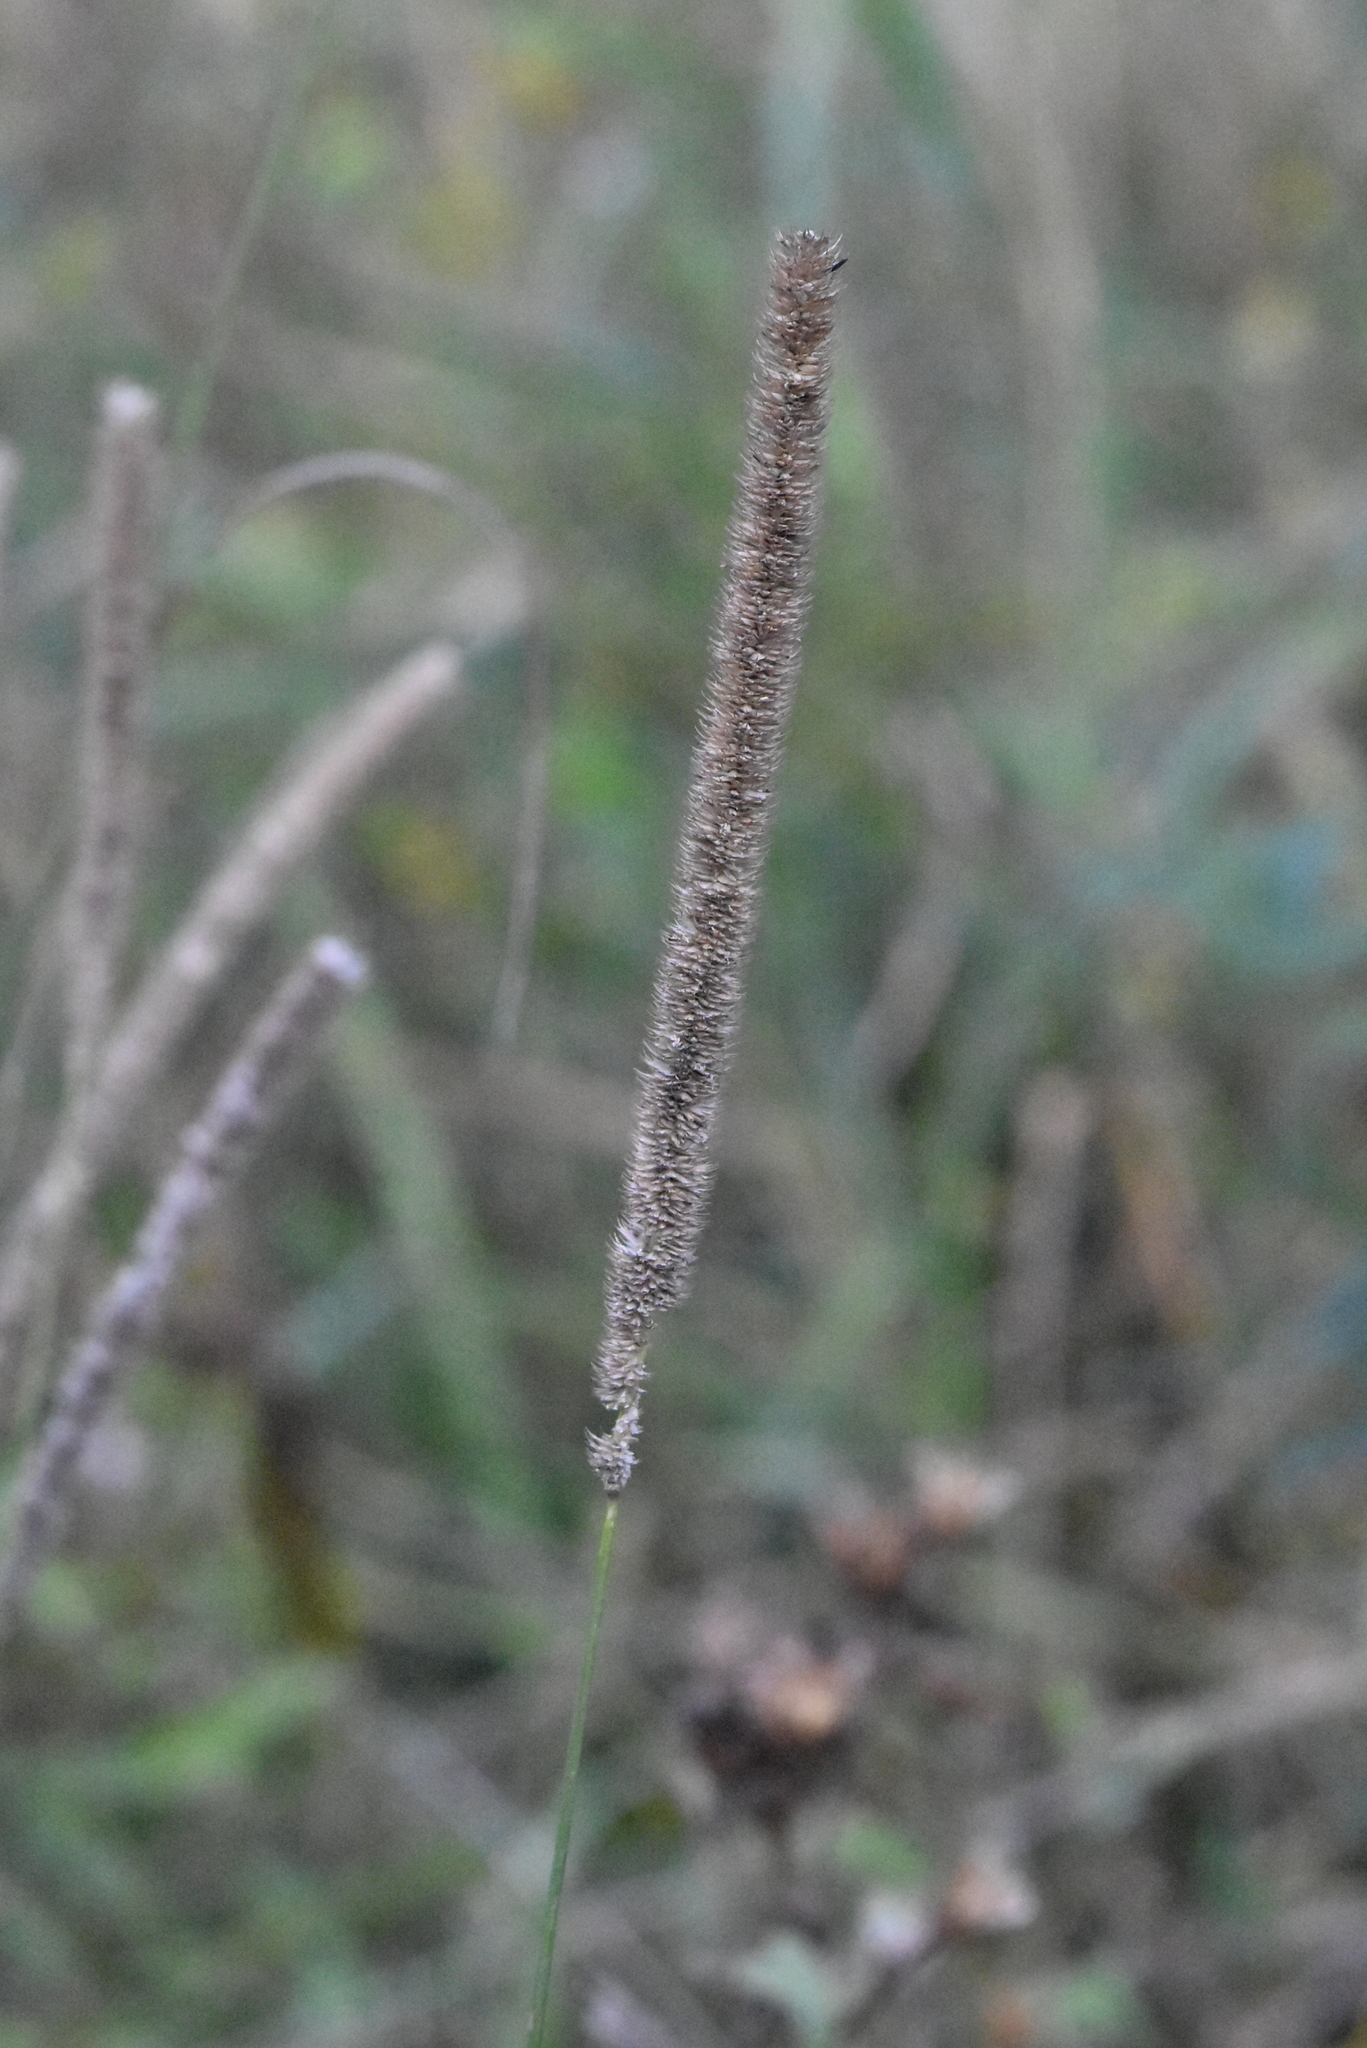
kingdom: Plantae
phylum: Tracheophyta
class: Liliopsida
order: Poales
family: Poaceae
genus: Phleum
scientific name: Phleum pratense
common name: Timothy grass
